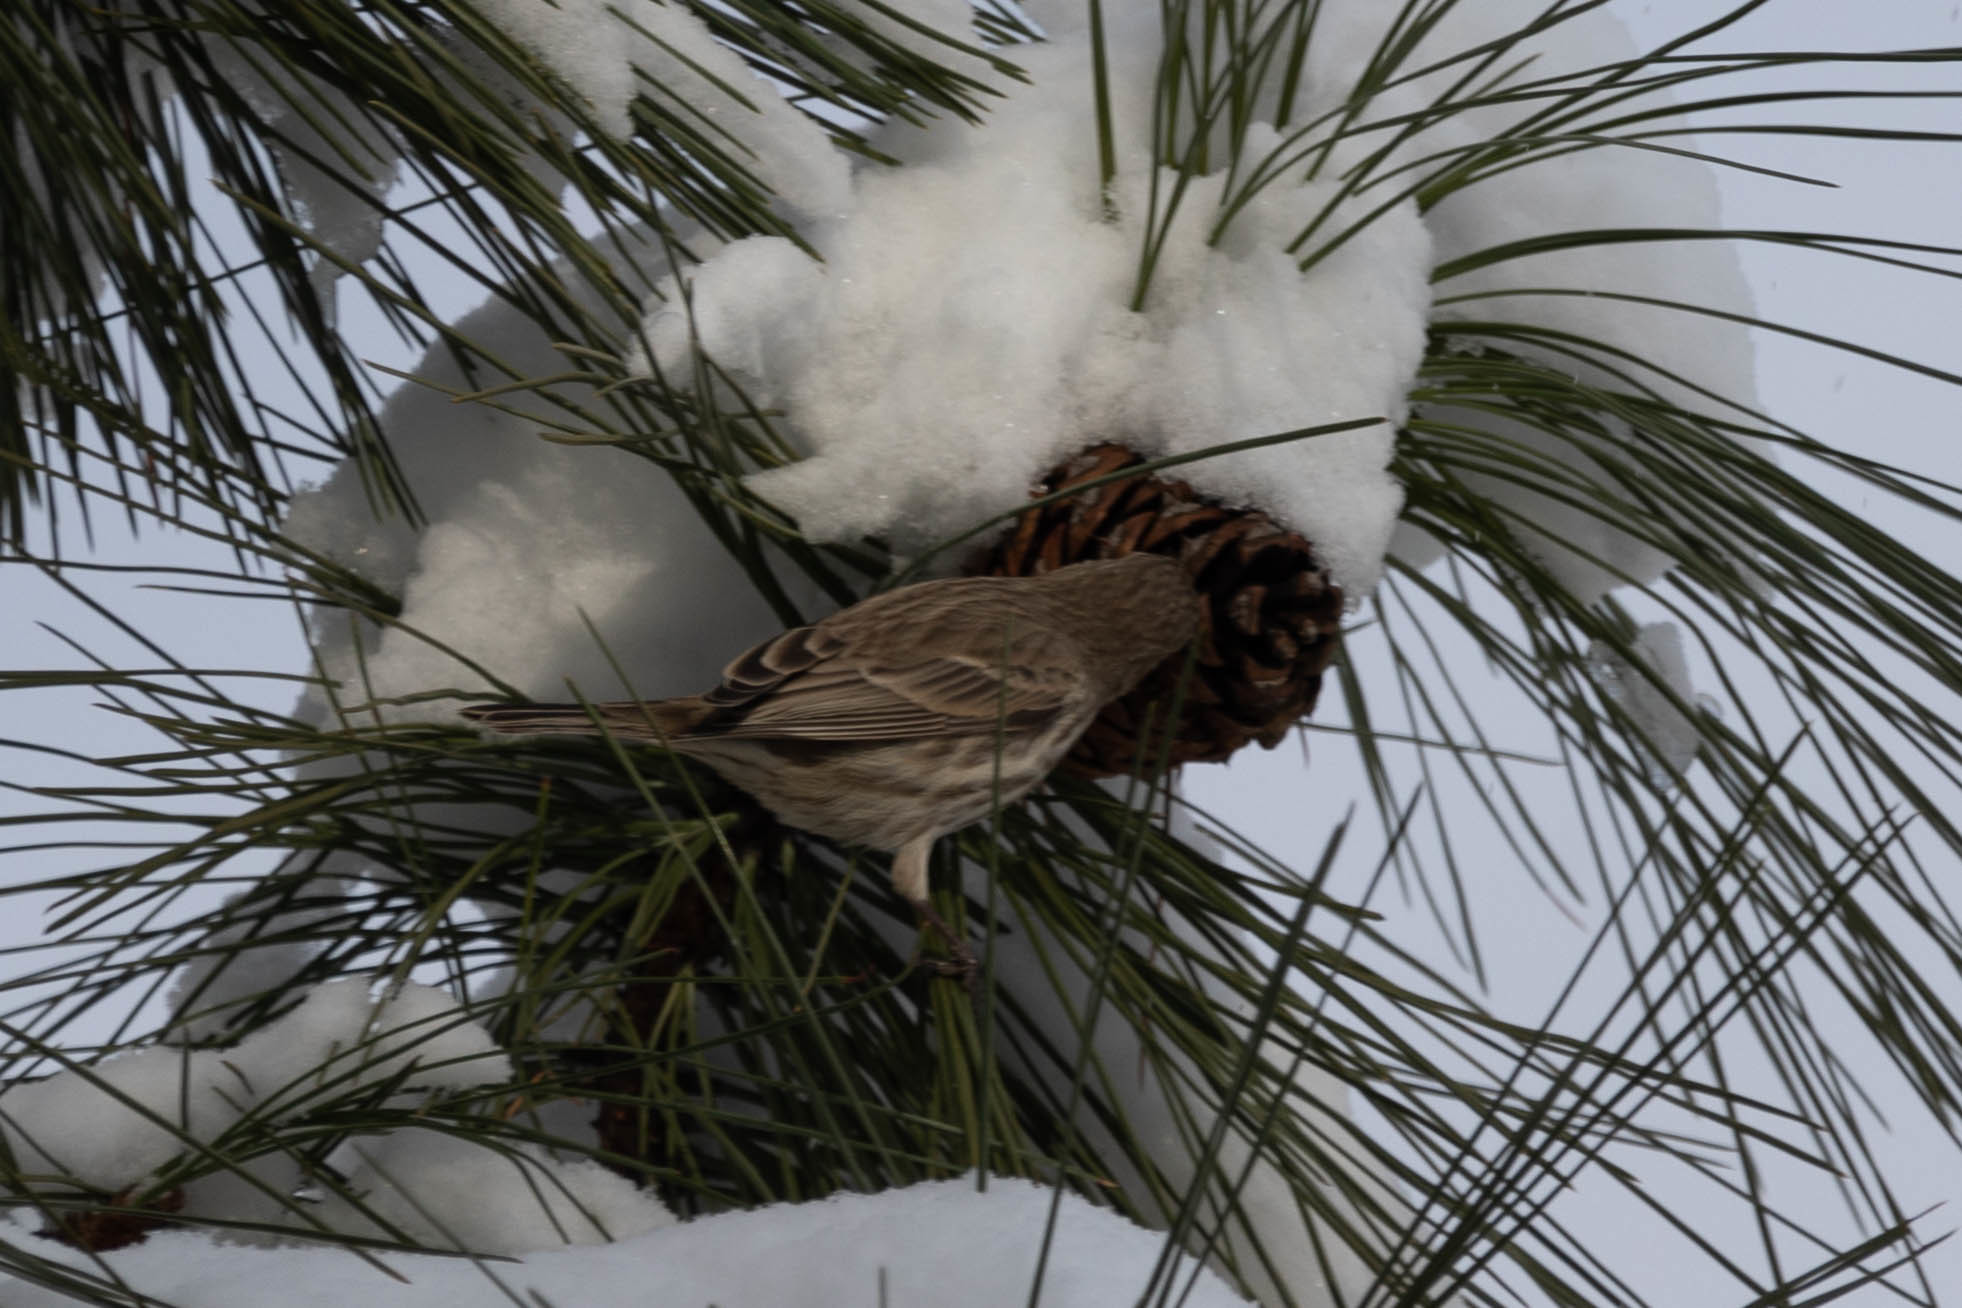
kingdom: Animalia
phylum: Chordata
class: Aves
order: Passeriformes
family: Fringillidae
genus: Haemorhous
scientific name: Haemorhous mexicanus
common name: House finch
